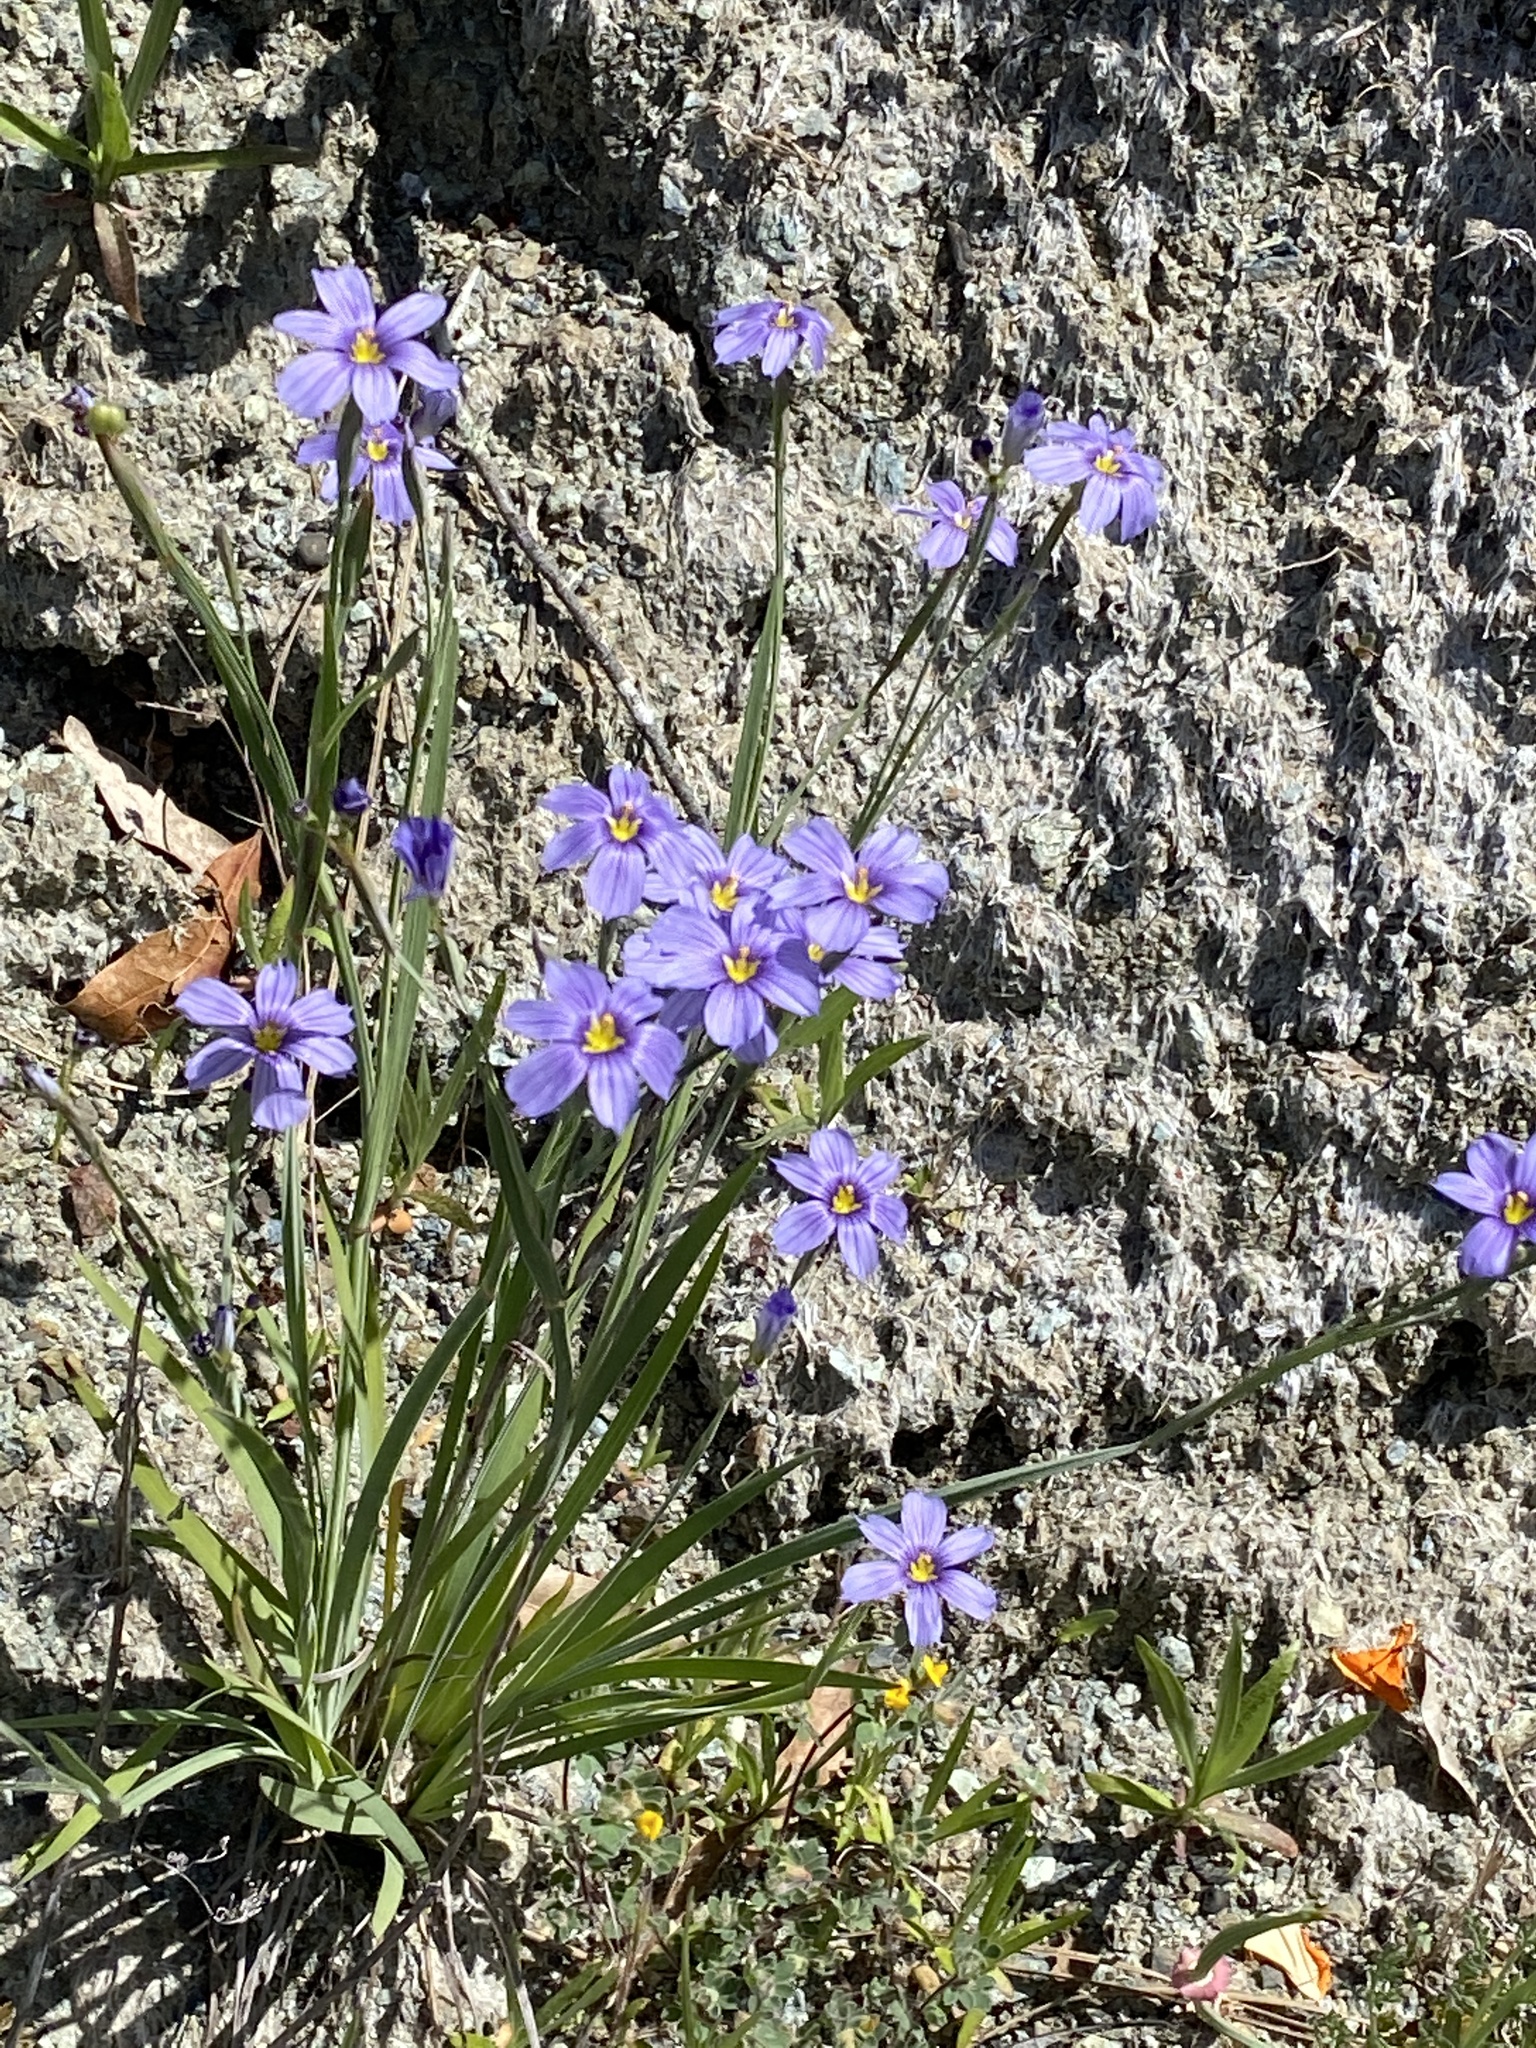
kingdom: Plantae
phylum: Tracheophyta
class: Liliopsida
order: Asparagales
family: Iridaceae
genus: Sisyrinchium
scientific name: Sisyrinchium bellum
